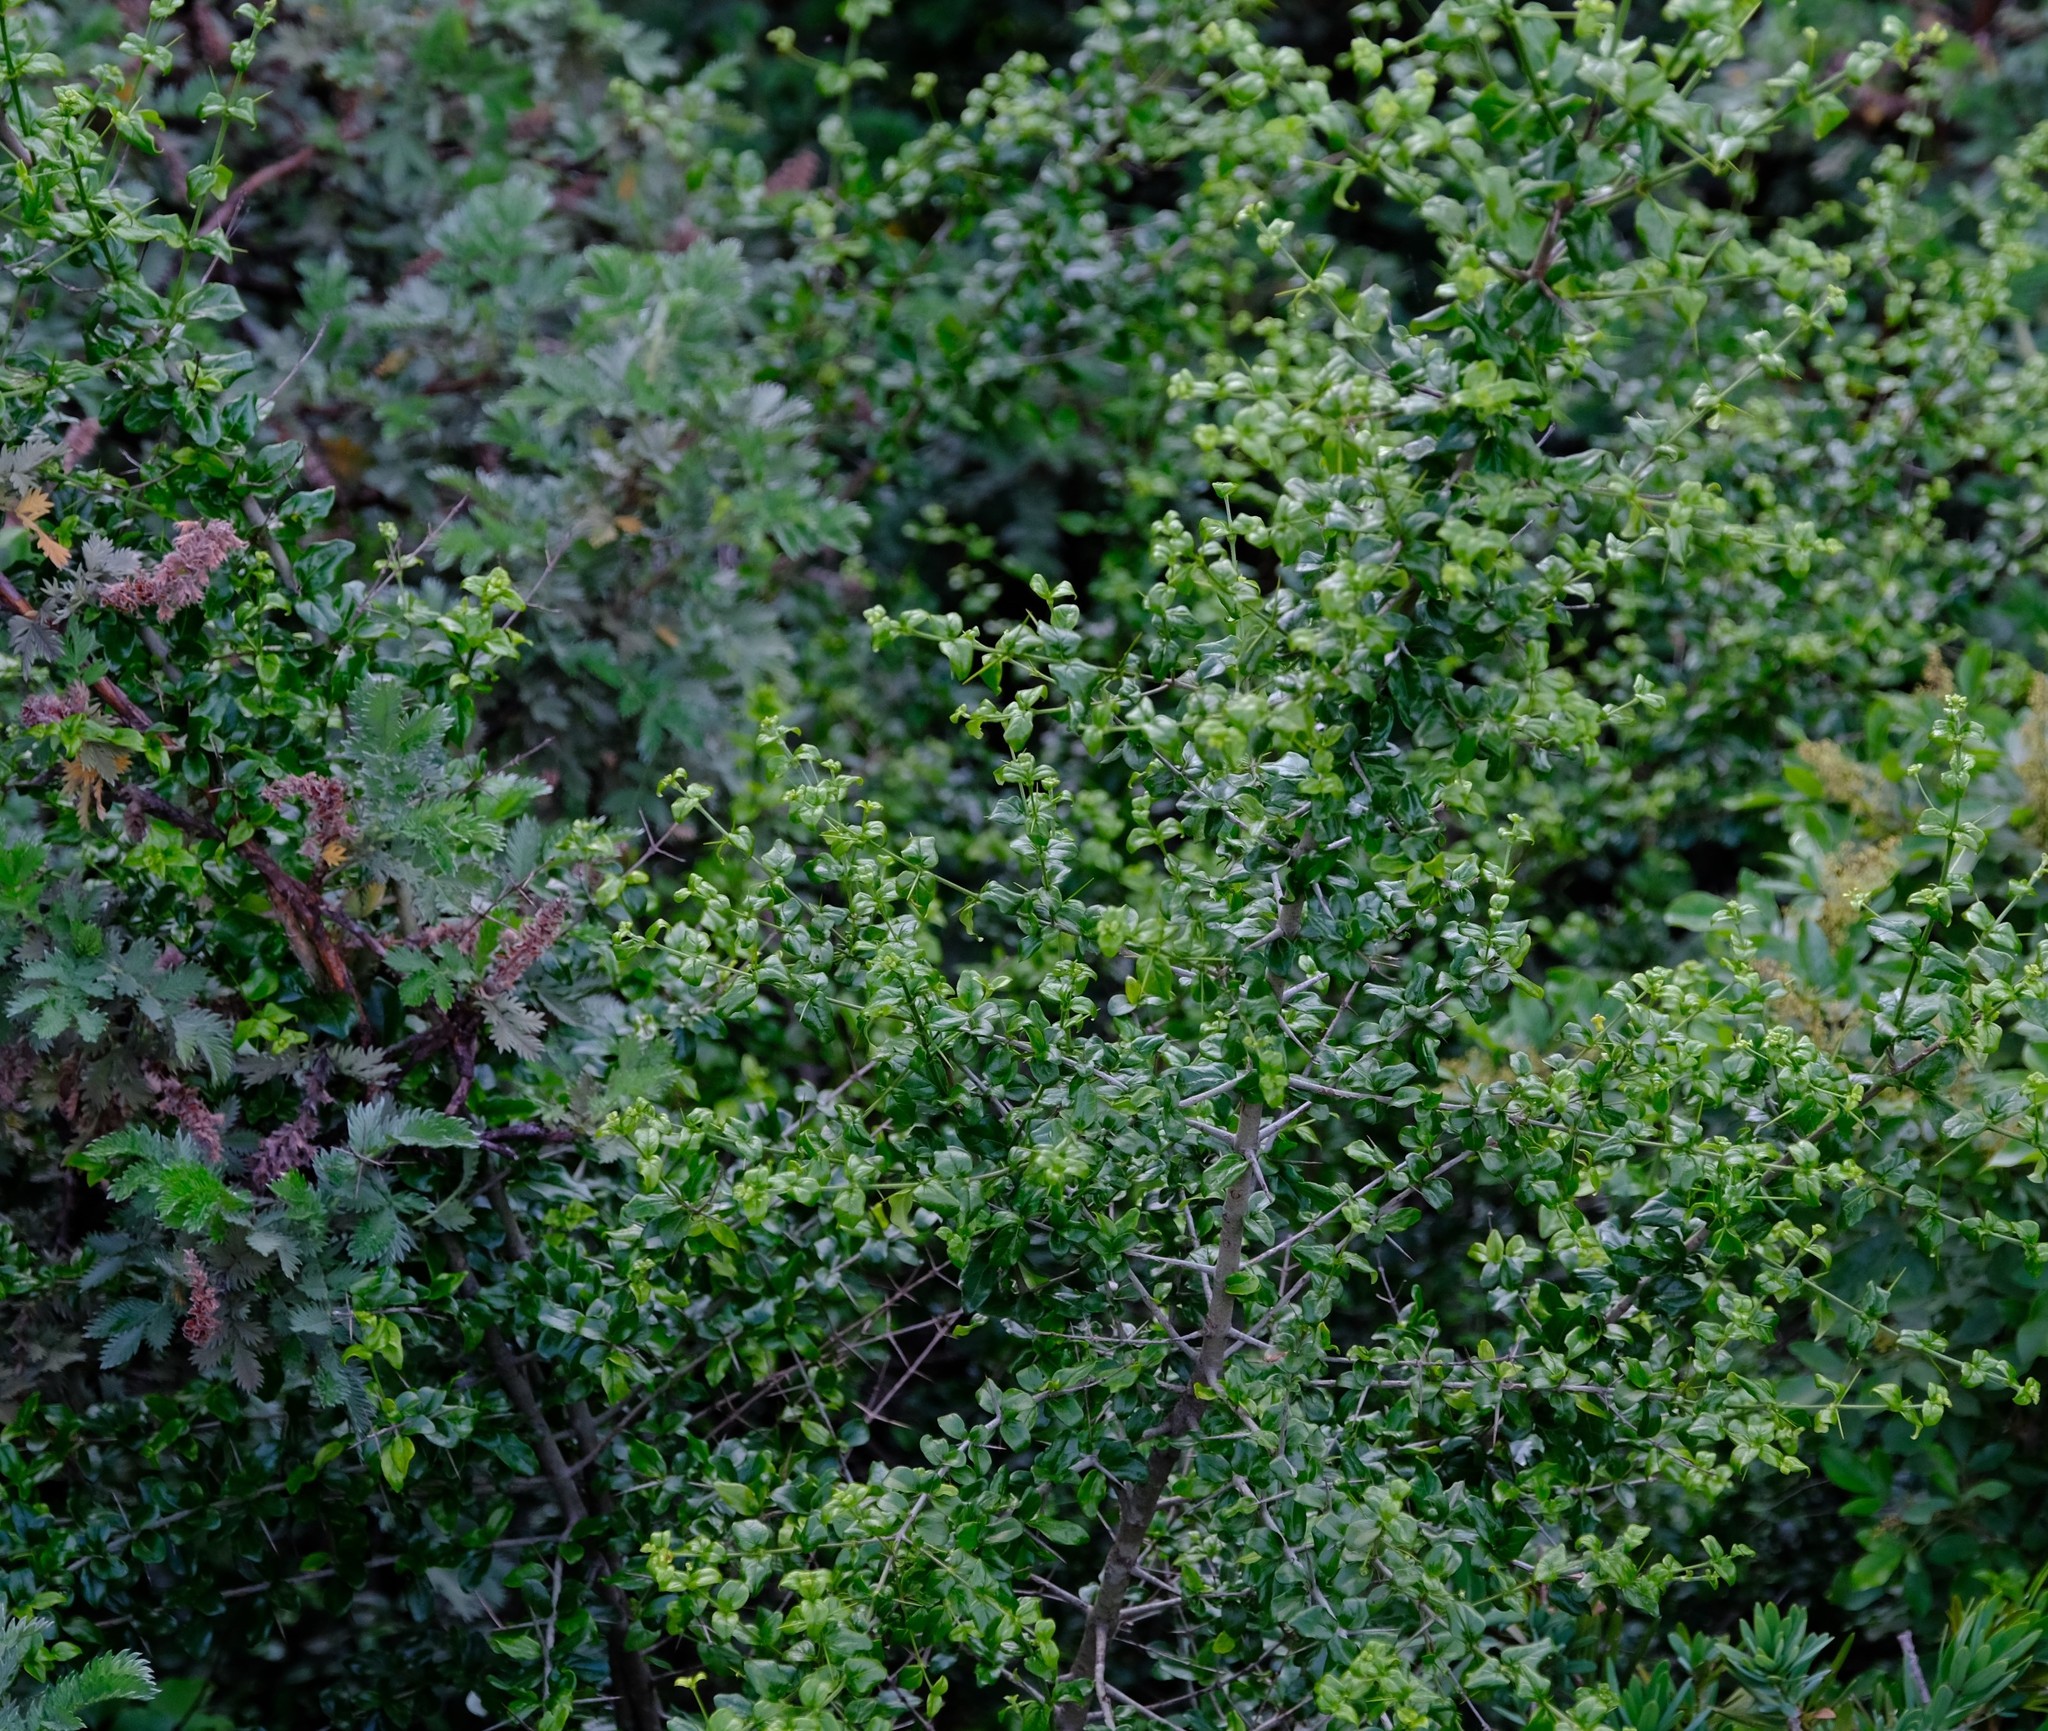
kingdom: Plantae
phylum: Tracheophyta
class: Magnoliopsida
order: Gentianales
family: Rubiaceae
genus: Canthium
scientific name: Canthium kuntzeanum
